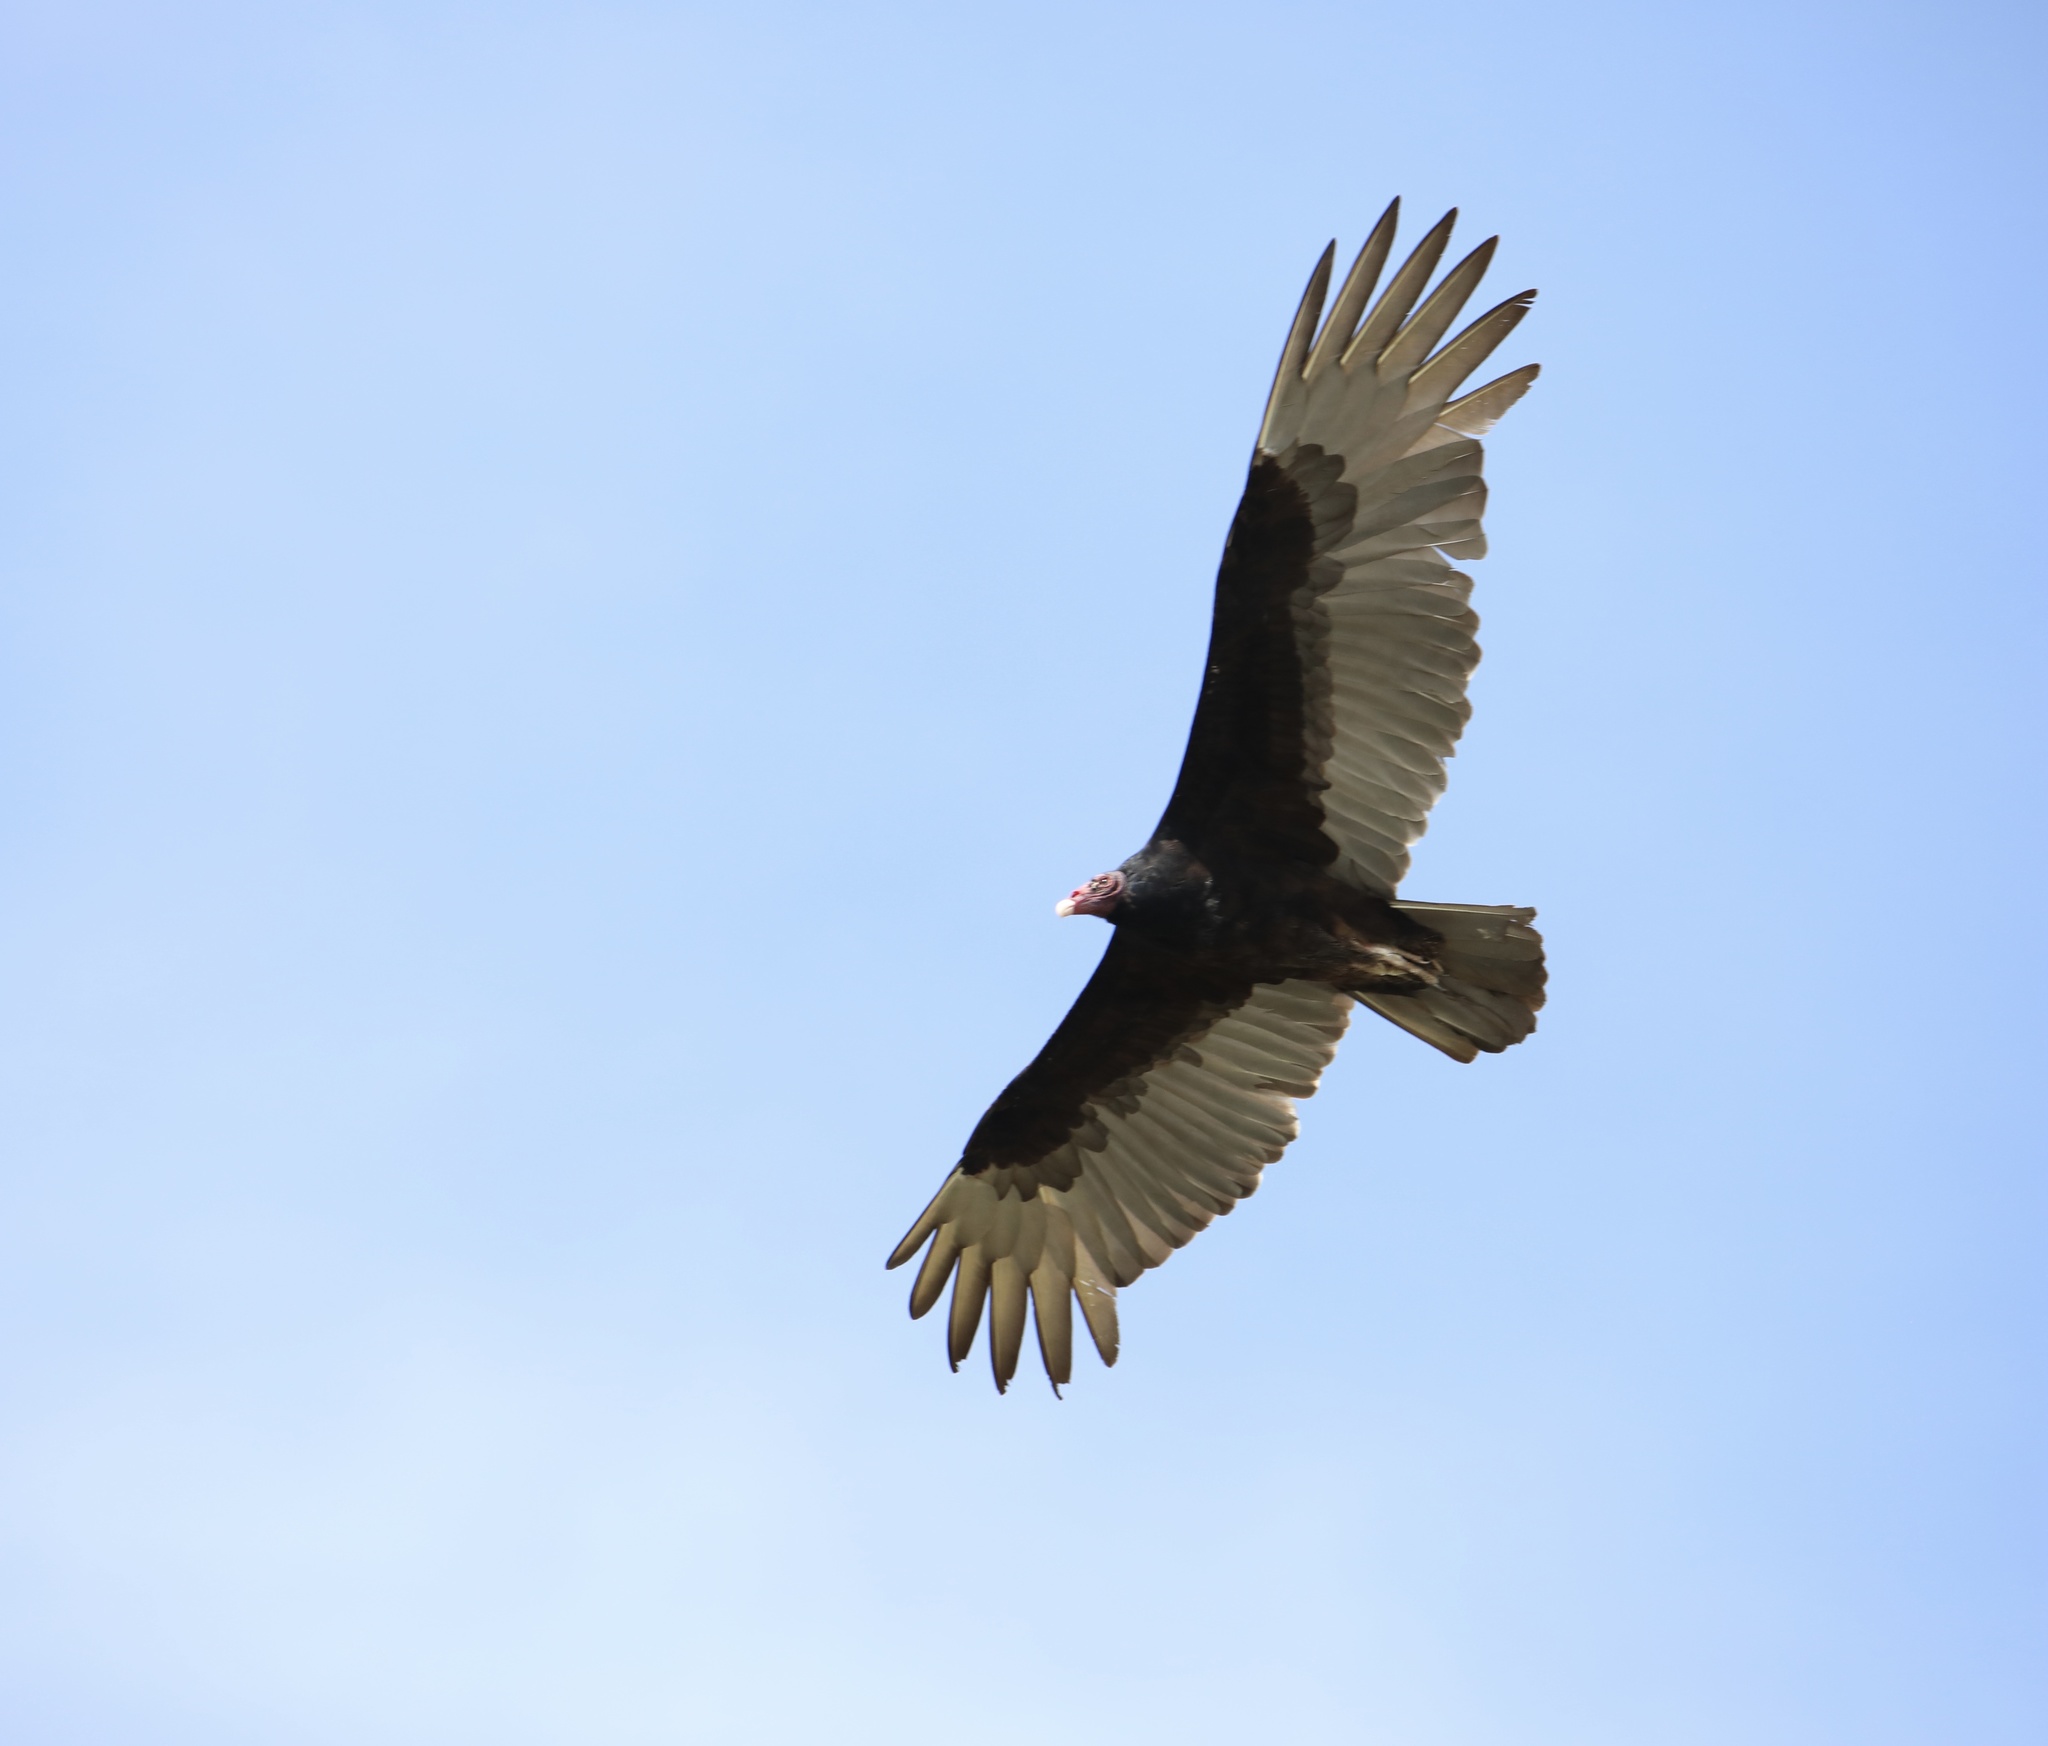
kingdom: Animalia
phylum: Chordata
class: Aves
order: Accipitriformes
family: Cathartidae
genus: Cathartes
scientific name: Cathartes aura
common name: Turkey vulture
